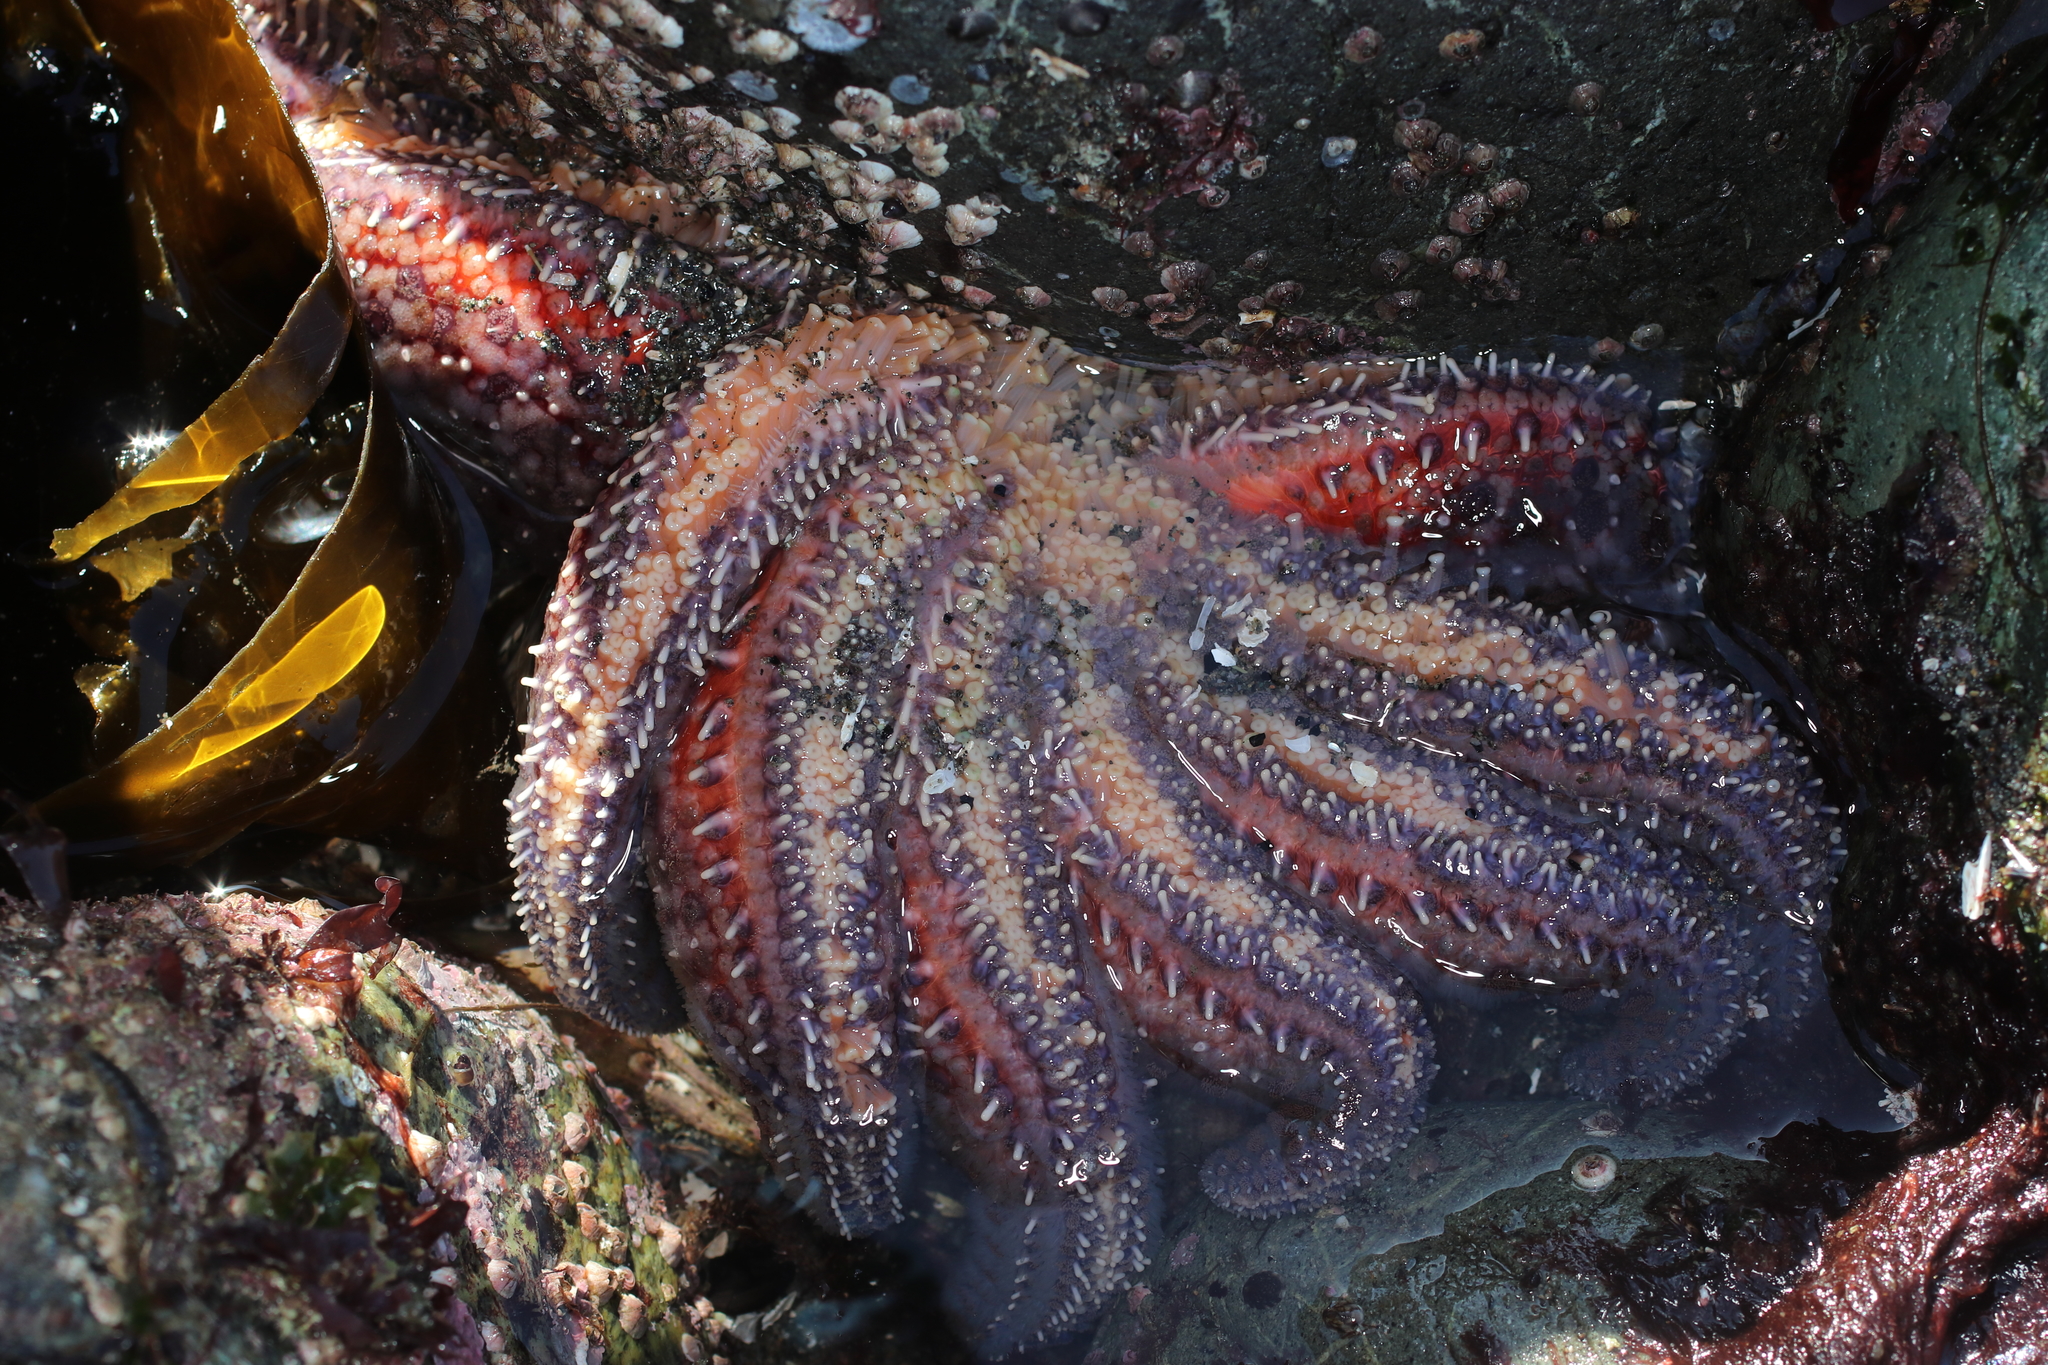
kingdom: Animalia
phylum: Echinodermata
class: Asteroidea
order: Forcipulatida
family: Asteriidae
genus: Pycnopodia
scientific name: Pycnopodia helianthoides
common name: Rag mop
